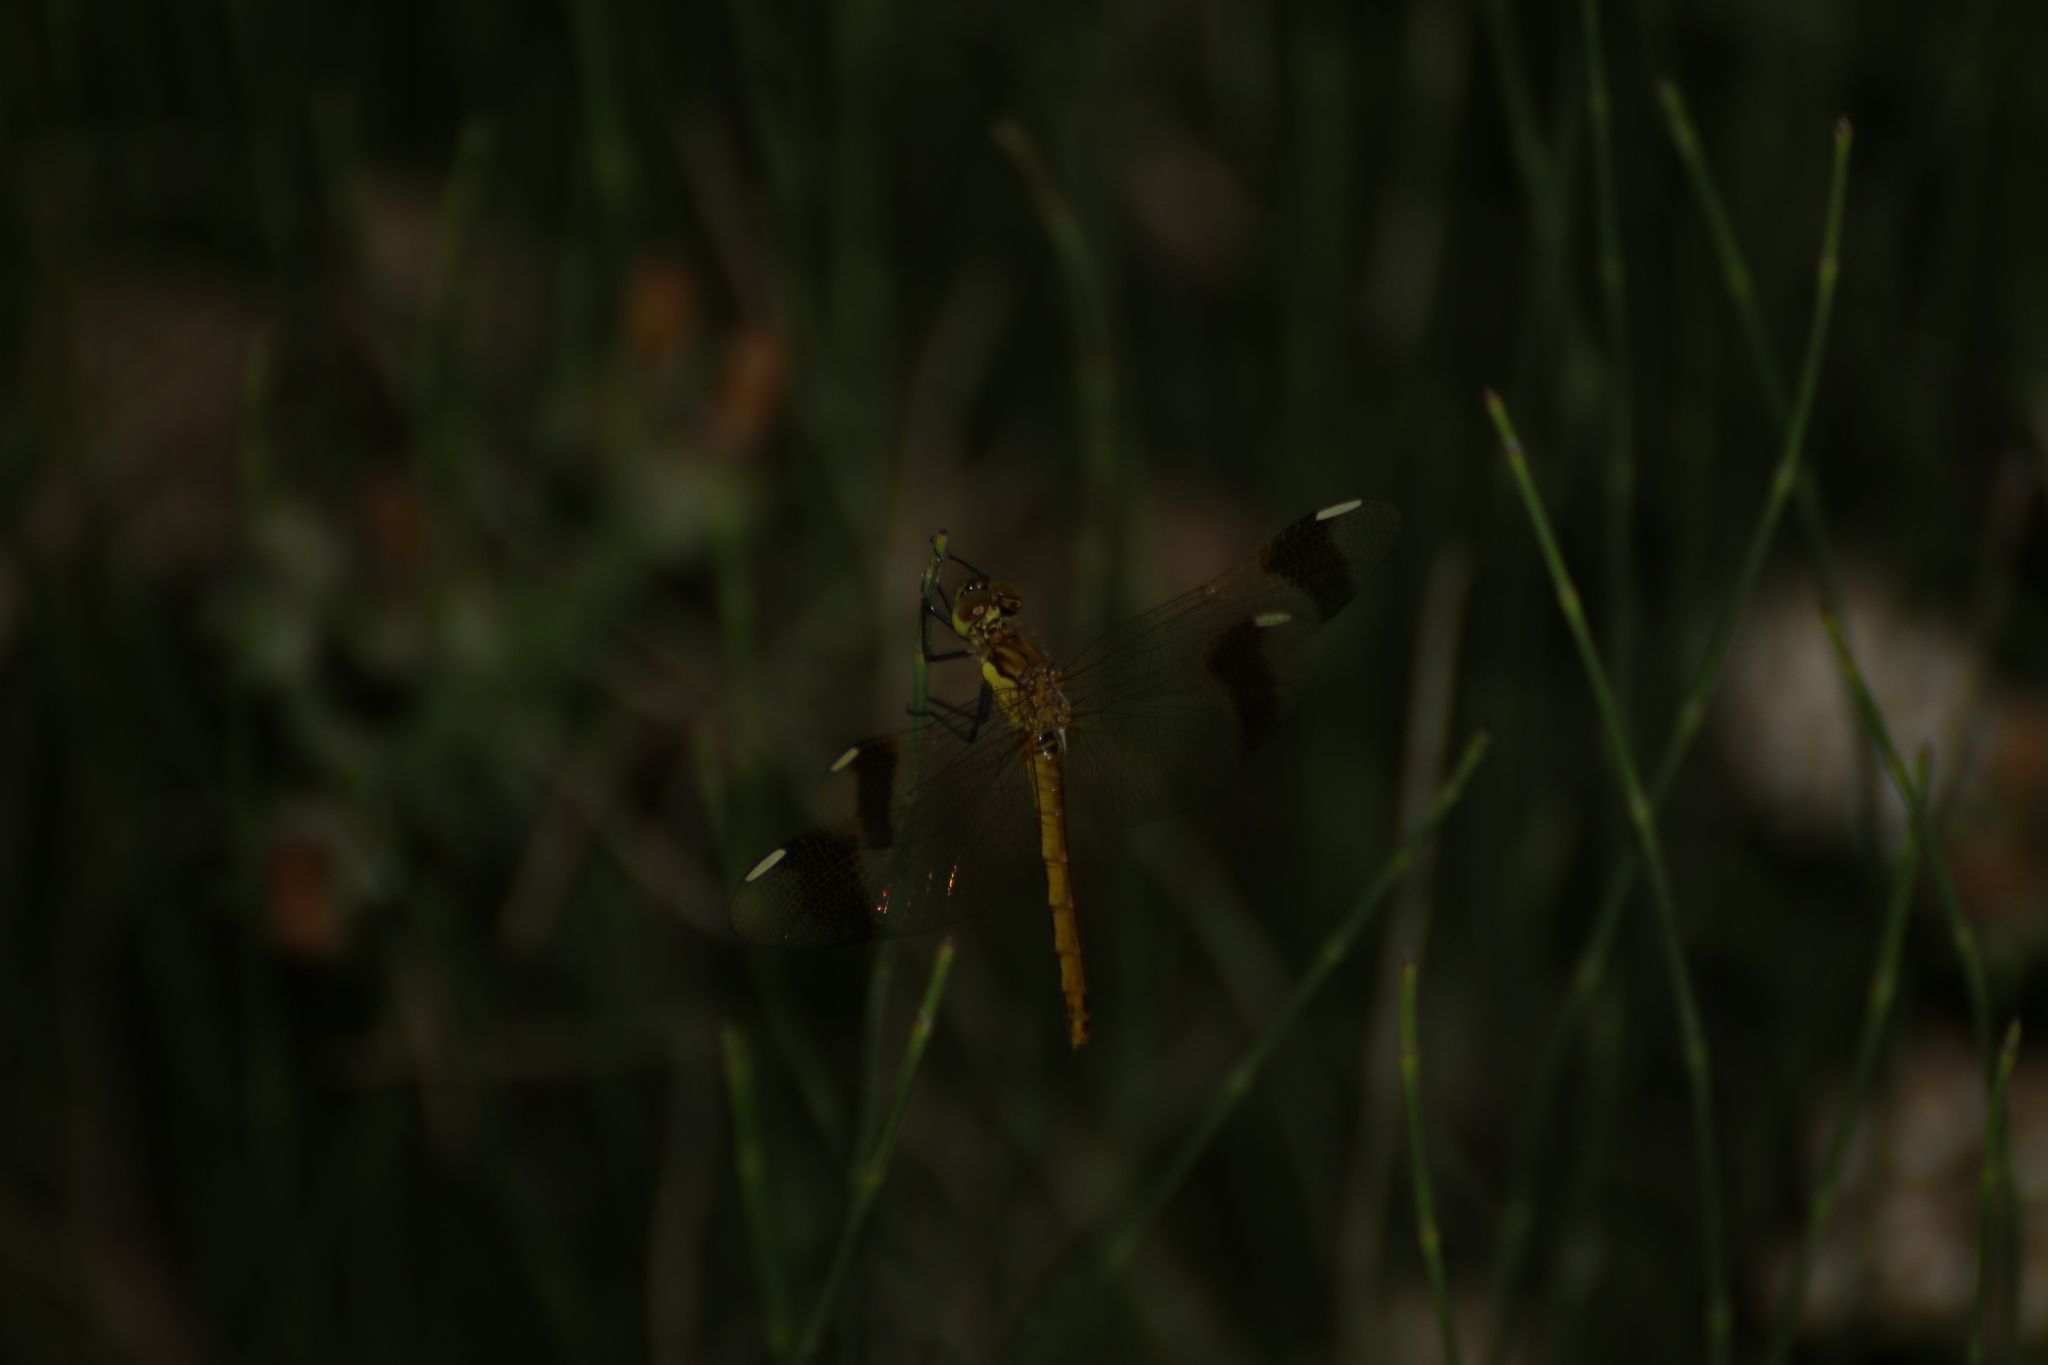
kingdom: Animalia
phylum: Arthropoda
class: Insecta
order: Odonata
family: Libellulidae
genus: Sympetrum
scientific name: Sympetrum pedemontanum
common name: Banded darter
